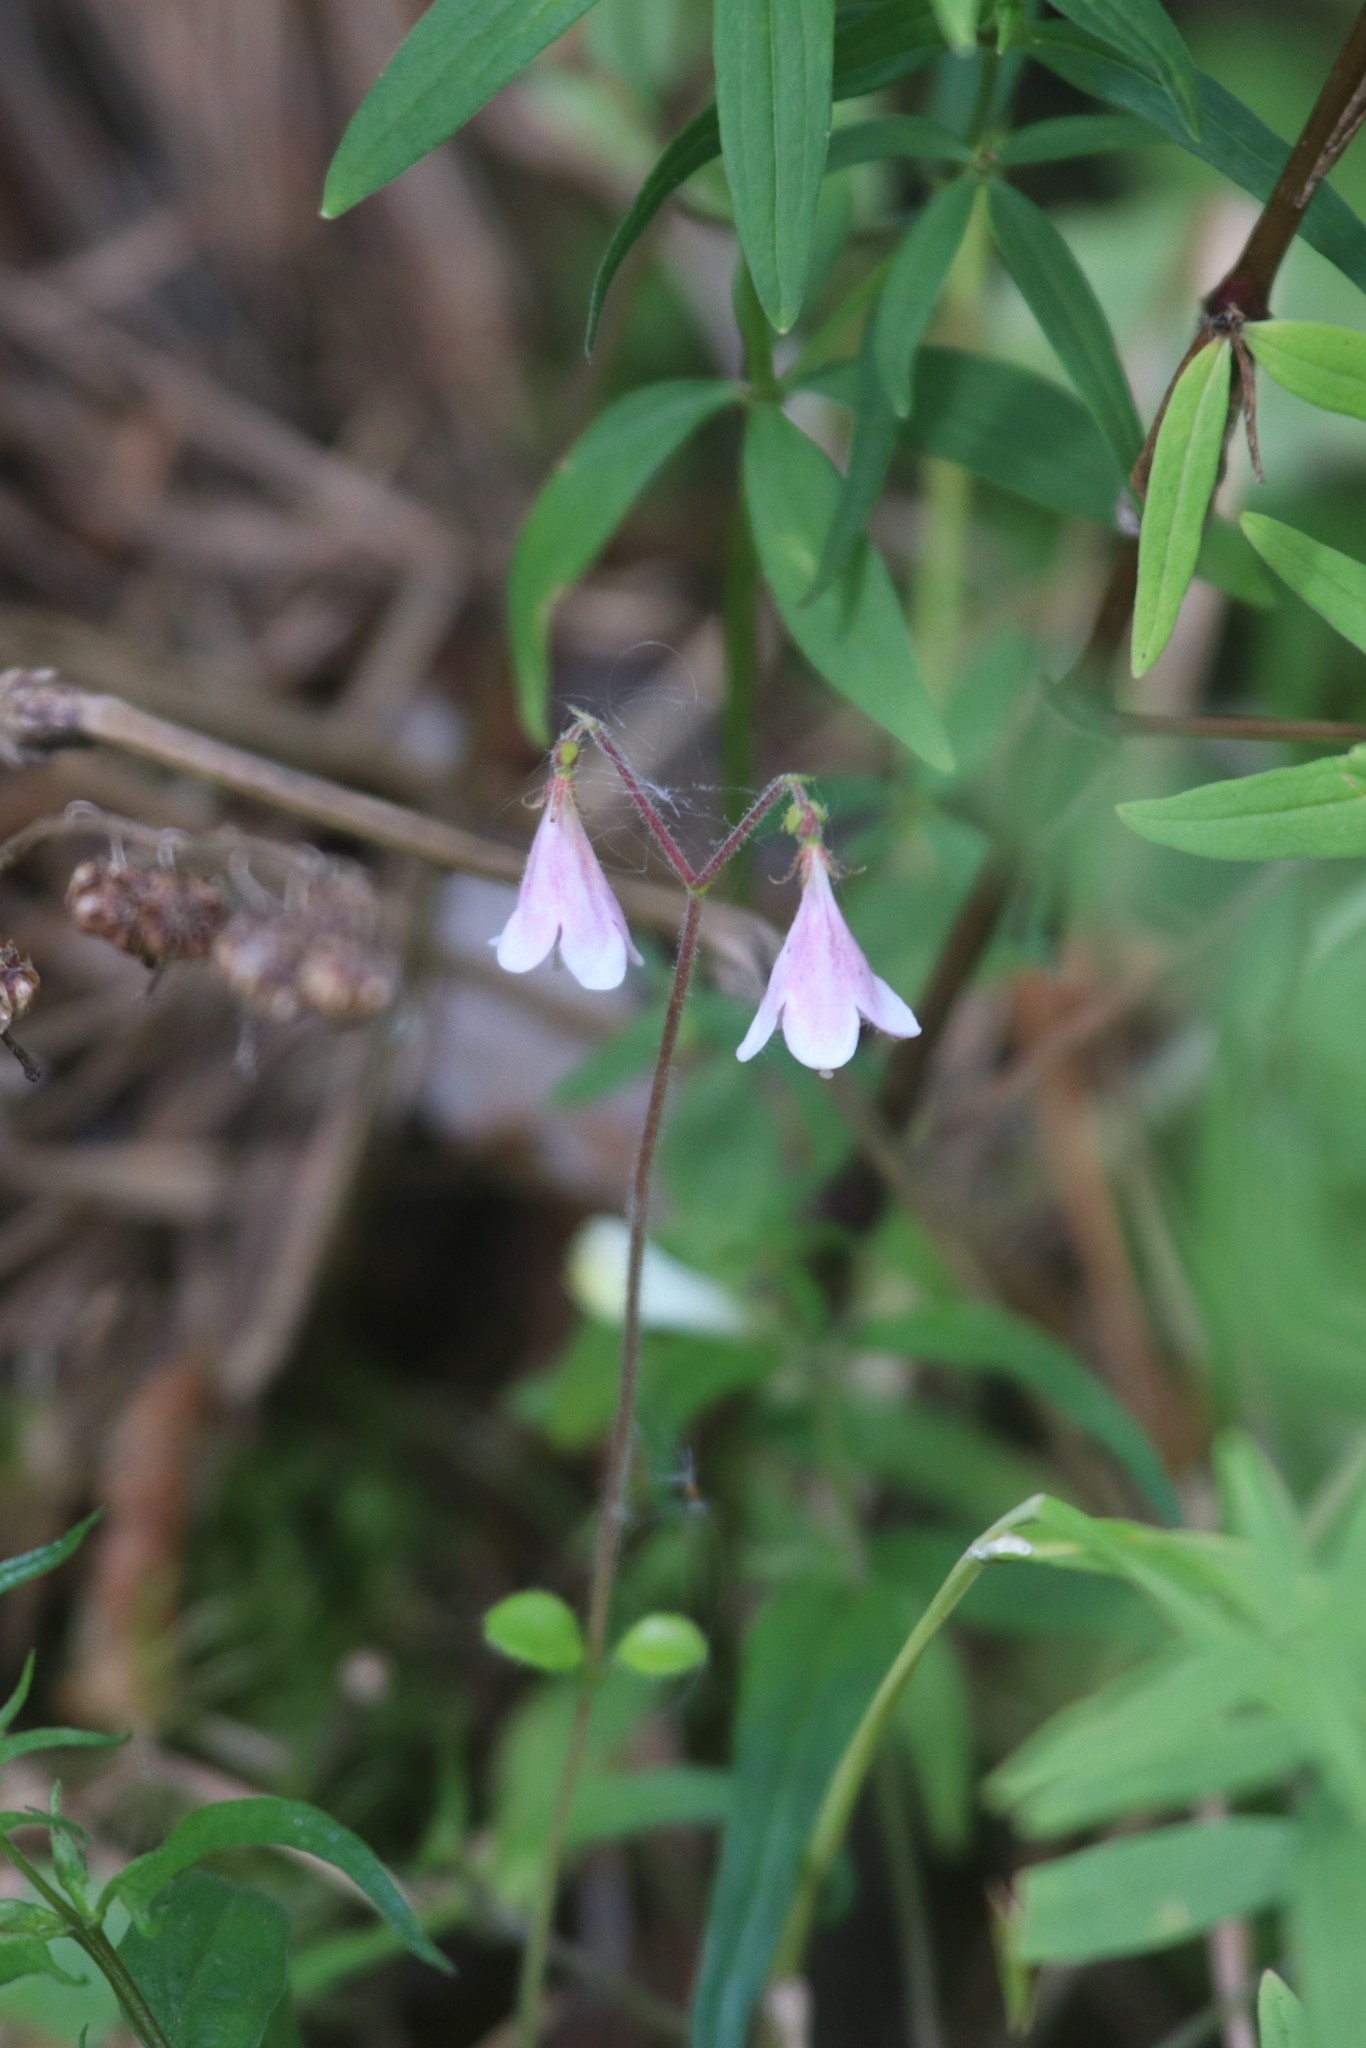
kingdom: Plantae
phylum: Tracheophyta
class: Magnoliopsida
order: Dipsacales
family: Caprifoliaceae
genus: Linnaea
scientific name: Linnaea borealis
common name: Twinflower
